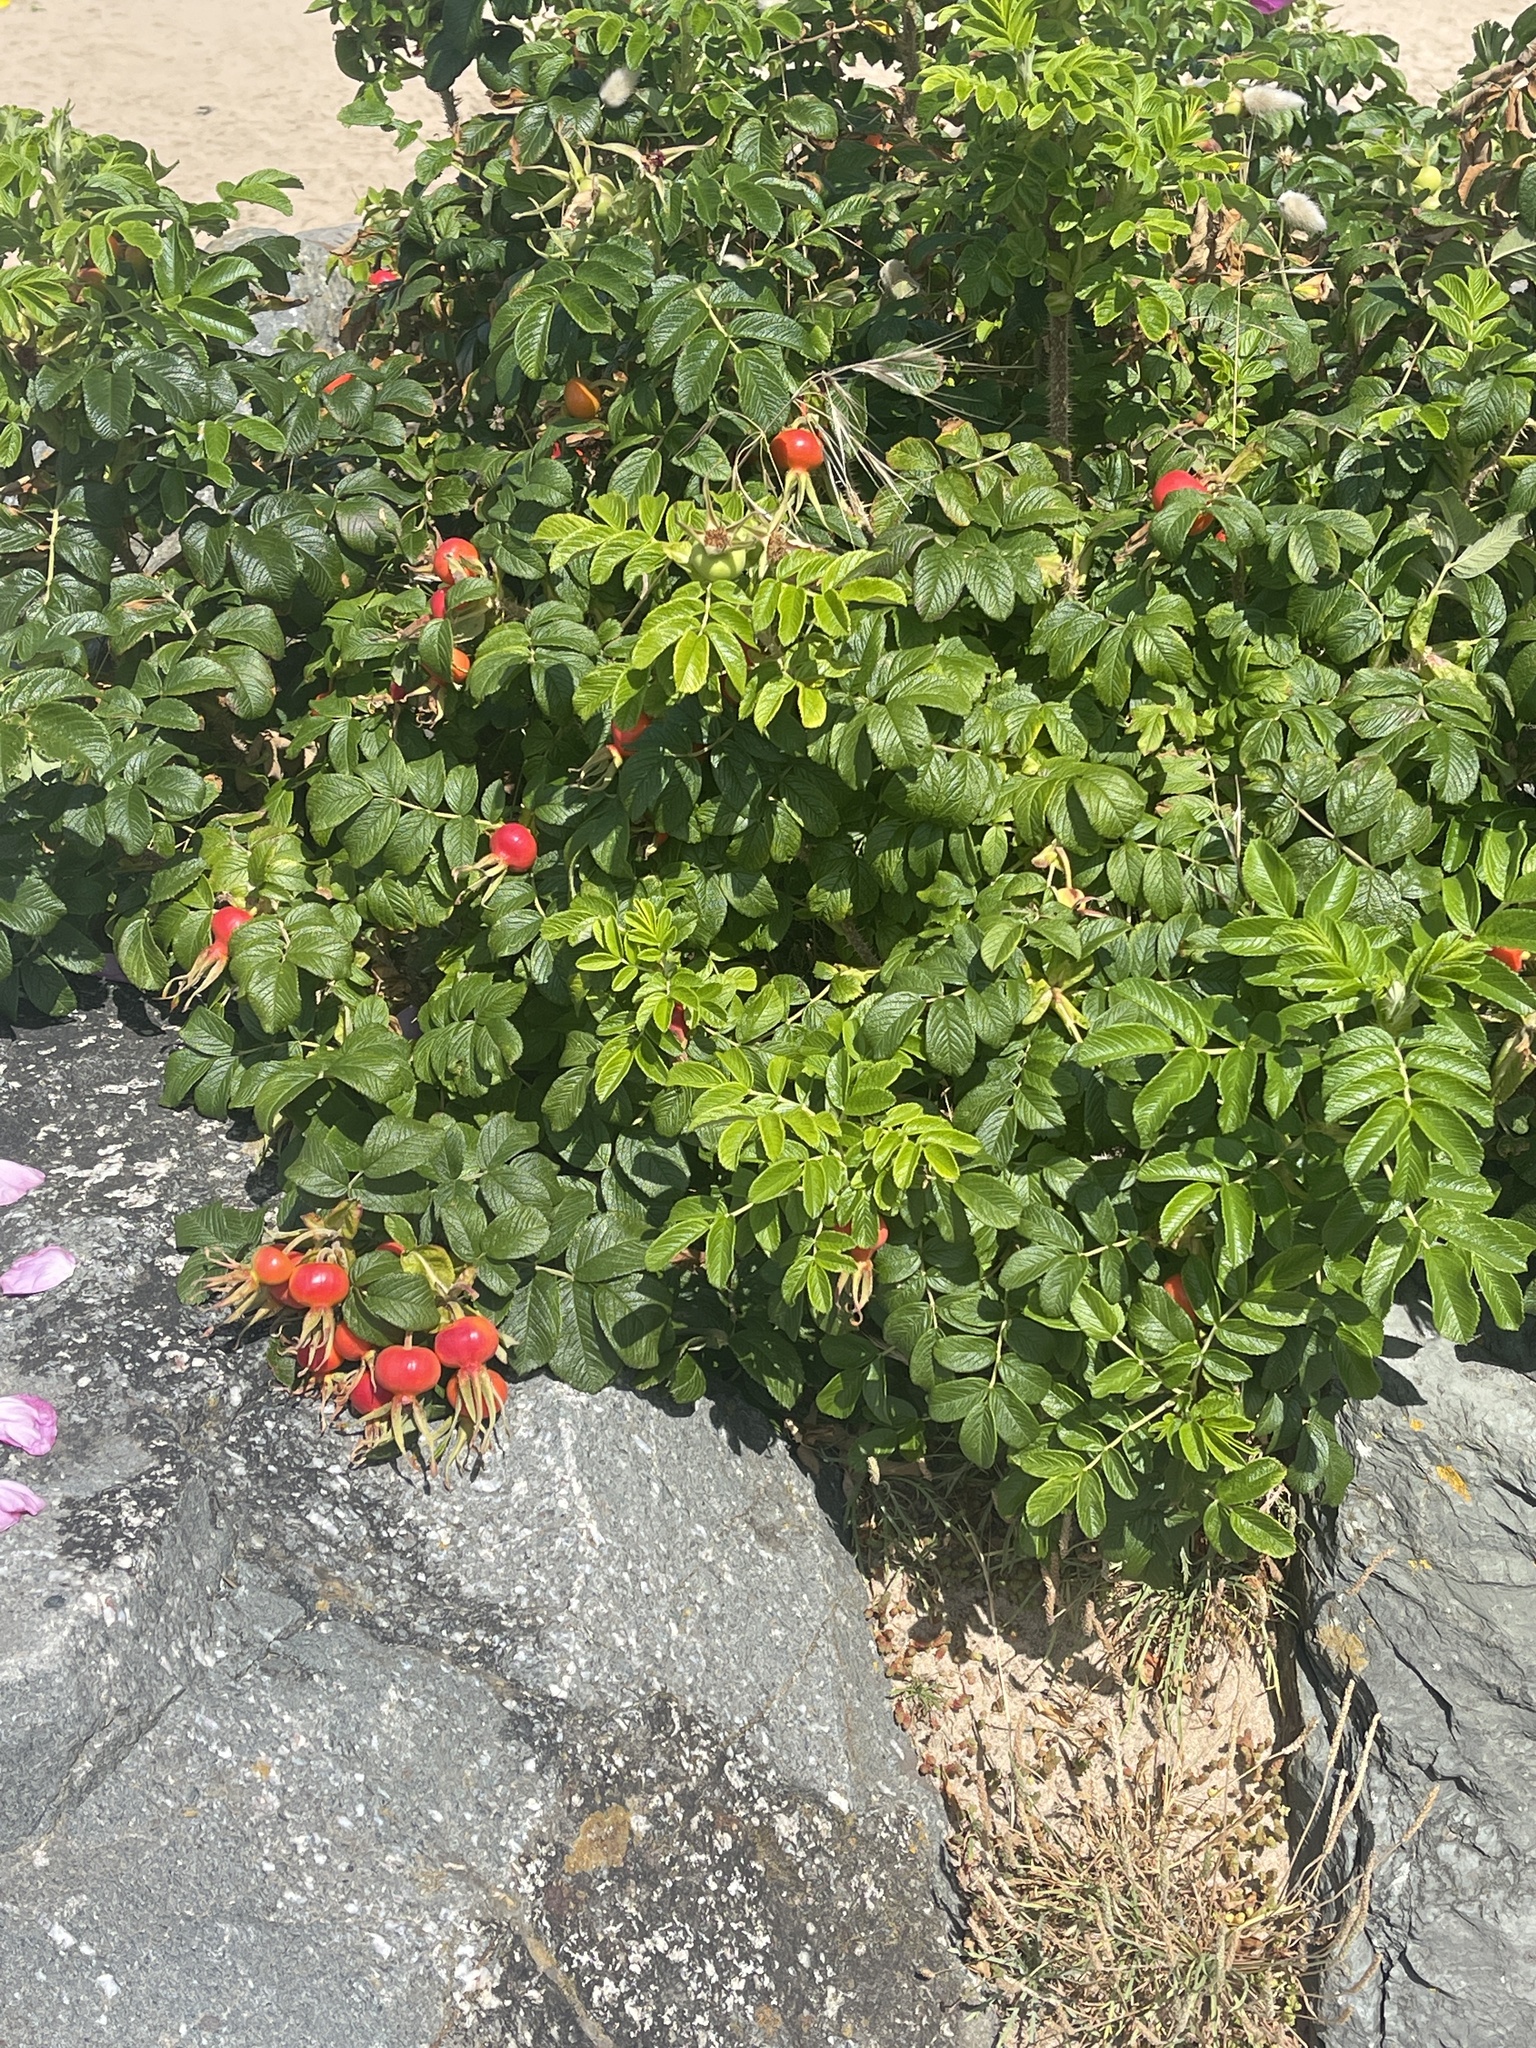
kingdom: Plantae
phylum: Tracheophyta
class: Magnoliopsida
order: Rosales
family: Rosaceae
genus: Rosa
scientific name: Rosa rugosa
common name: Japanese rose
